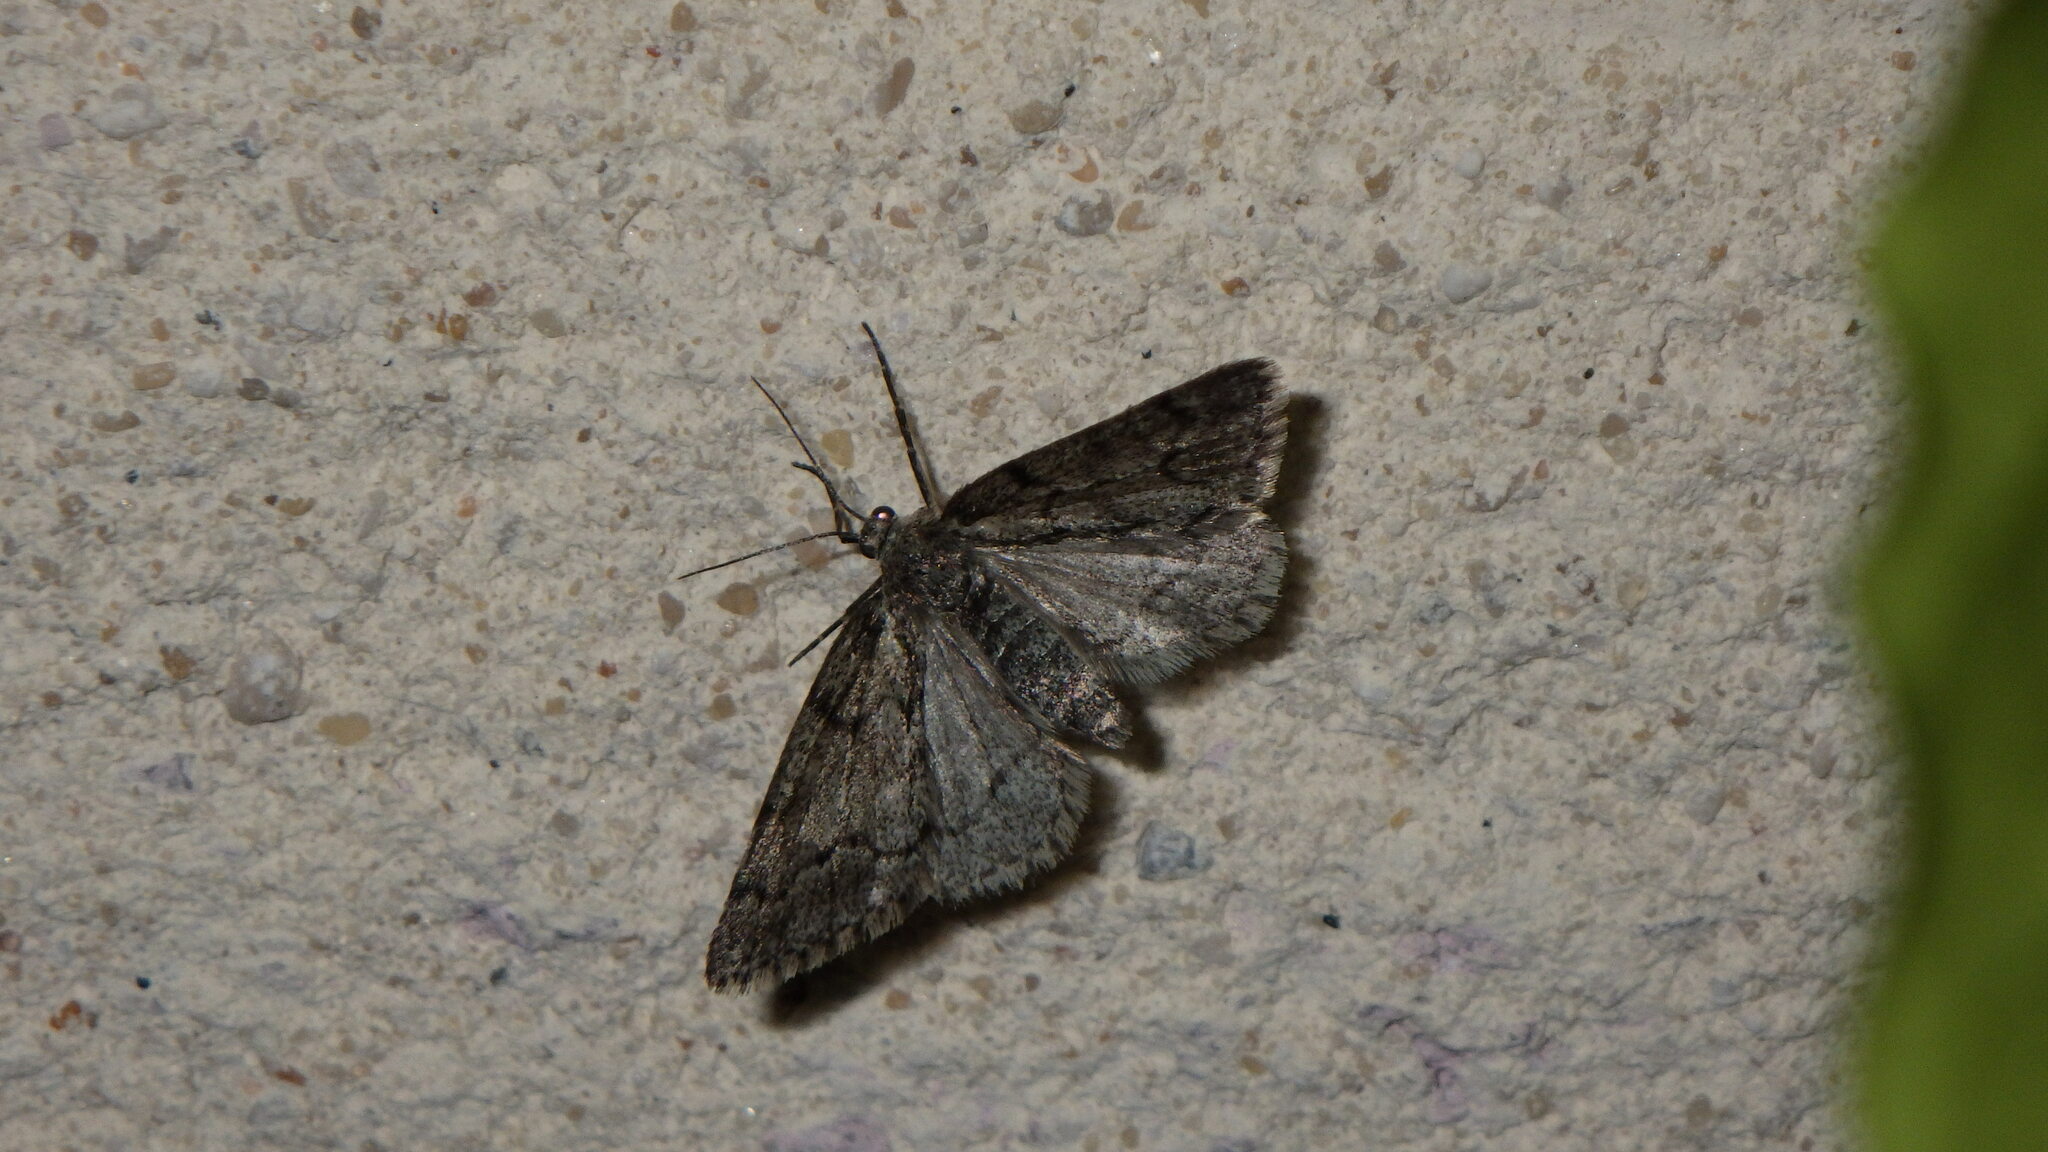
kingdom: Animalia
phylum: Arthropoda
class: Insecta
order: Lepidoptera
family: Geometridae
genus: Tephronia
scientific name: Tephronia sepiaria
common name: Dusky carpet
